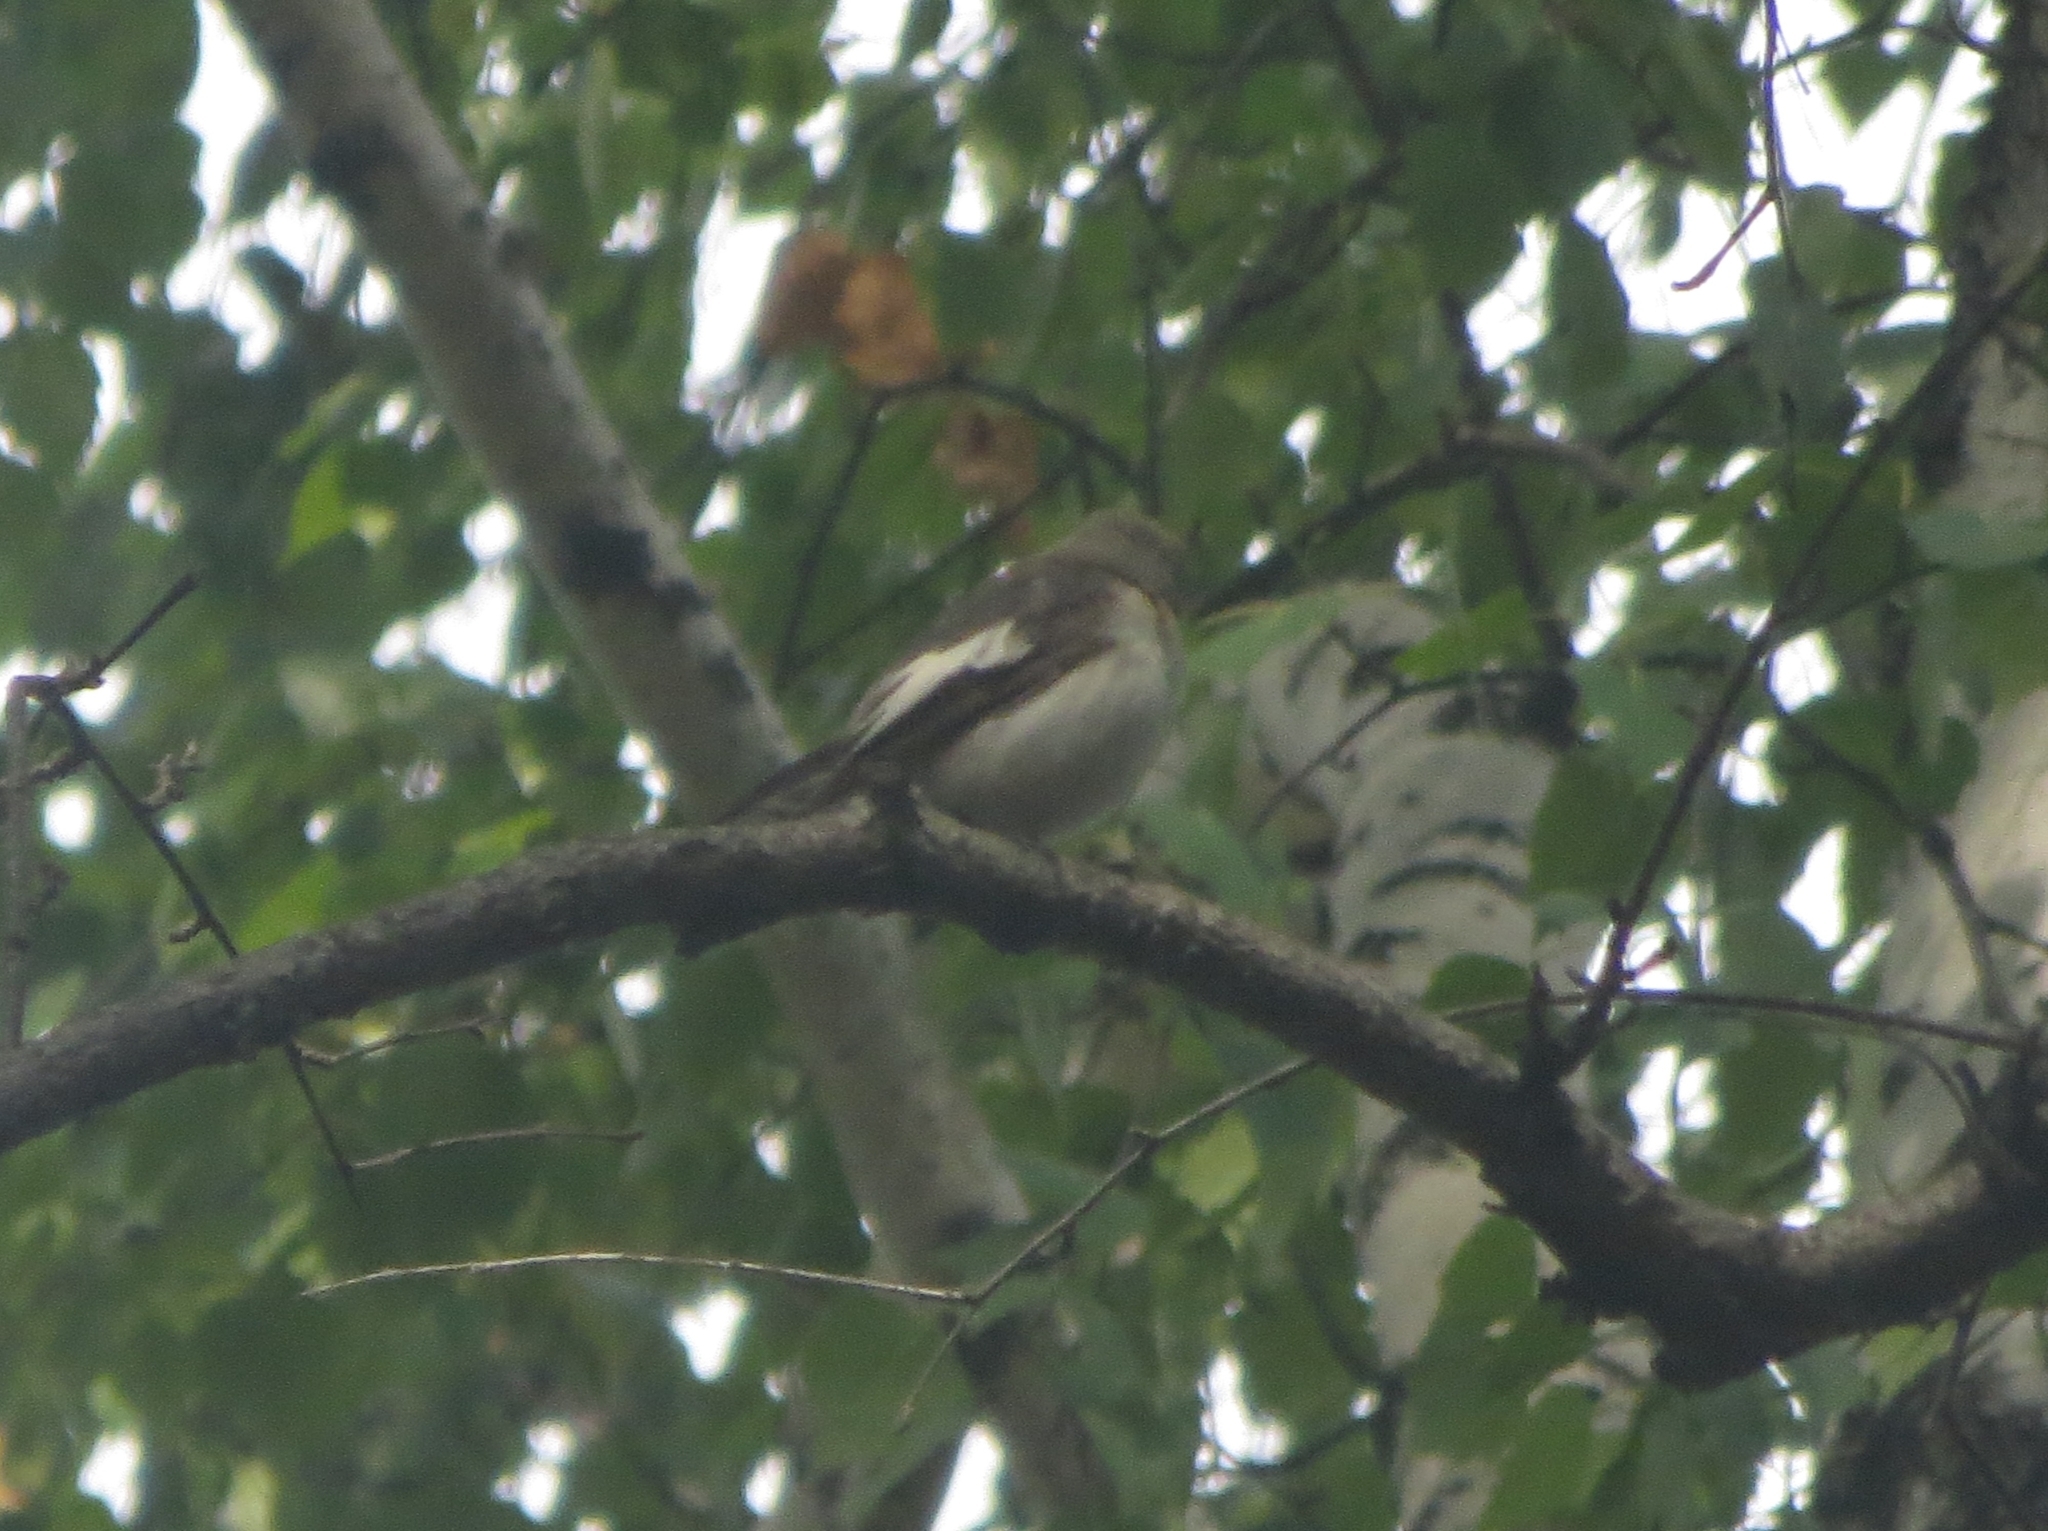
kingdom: Animalia
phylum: Chordata
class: Aves
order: Passeriformes
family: Muscicapidae
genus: Ficedula
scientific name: Ficedula hypoleuca
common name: European pied flycatcher
